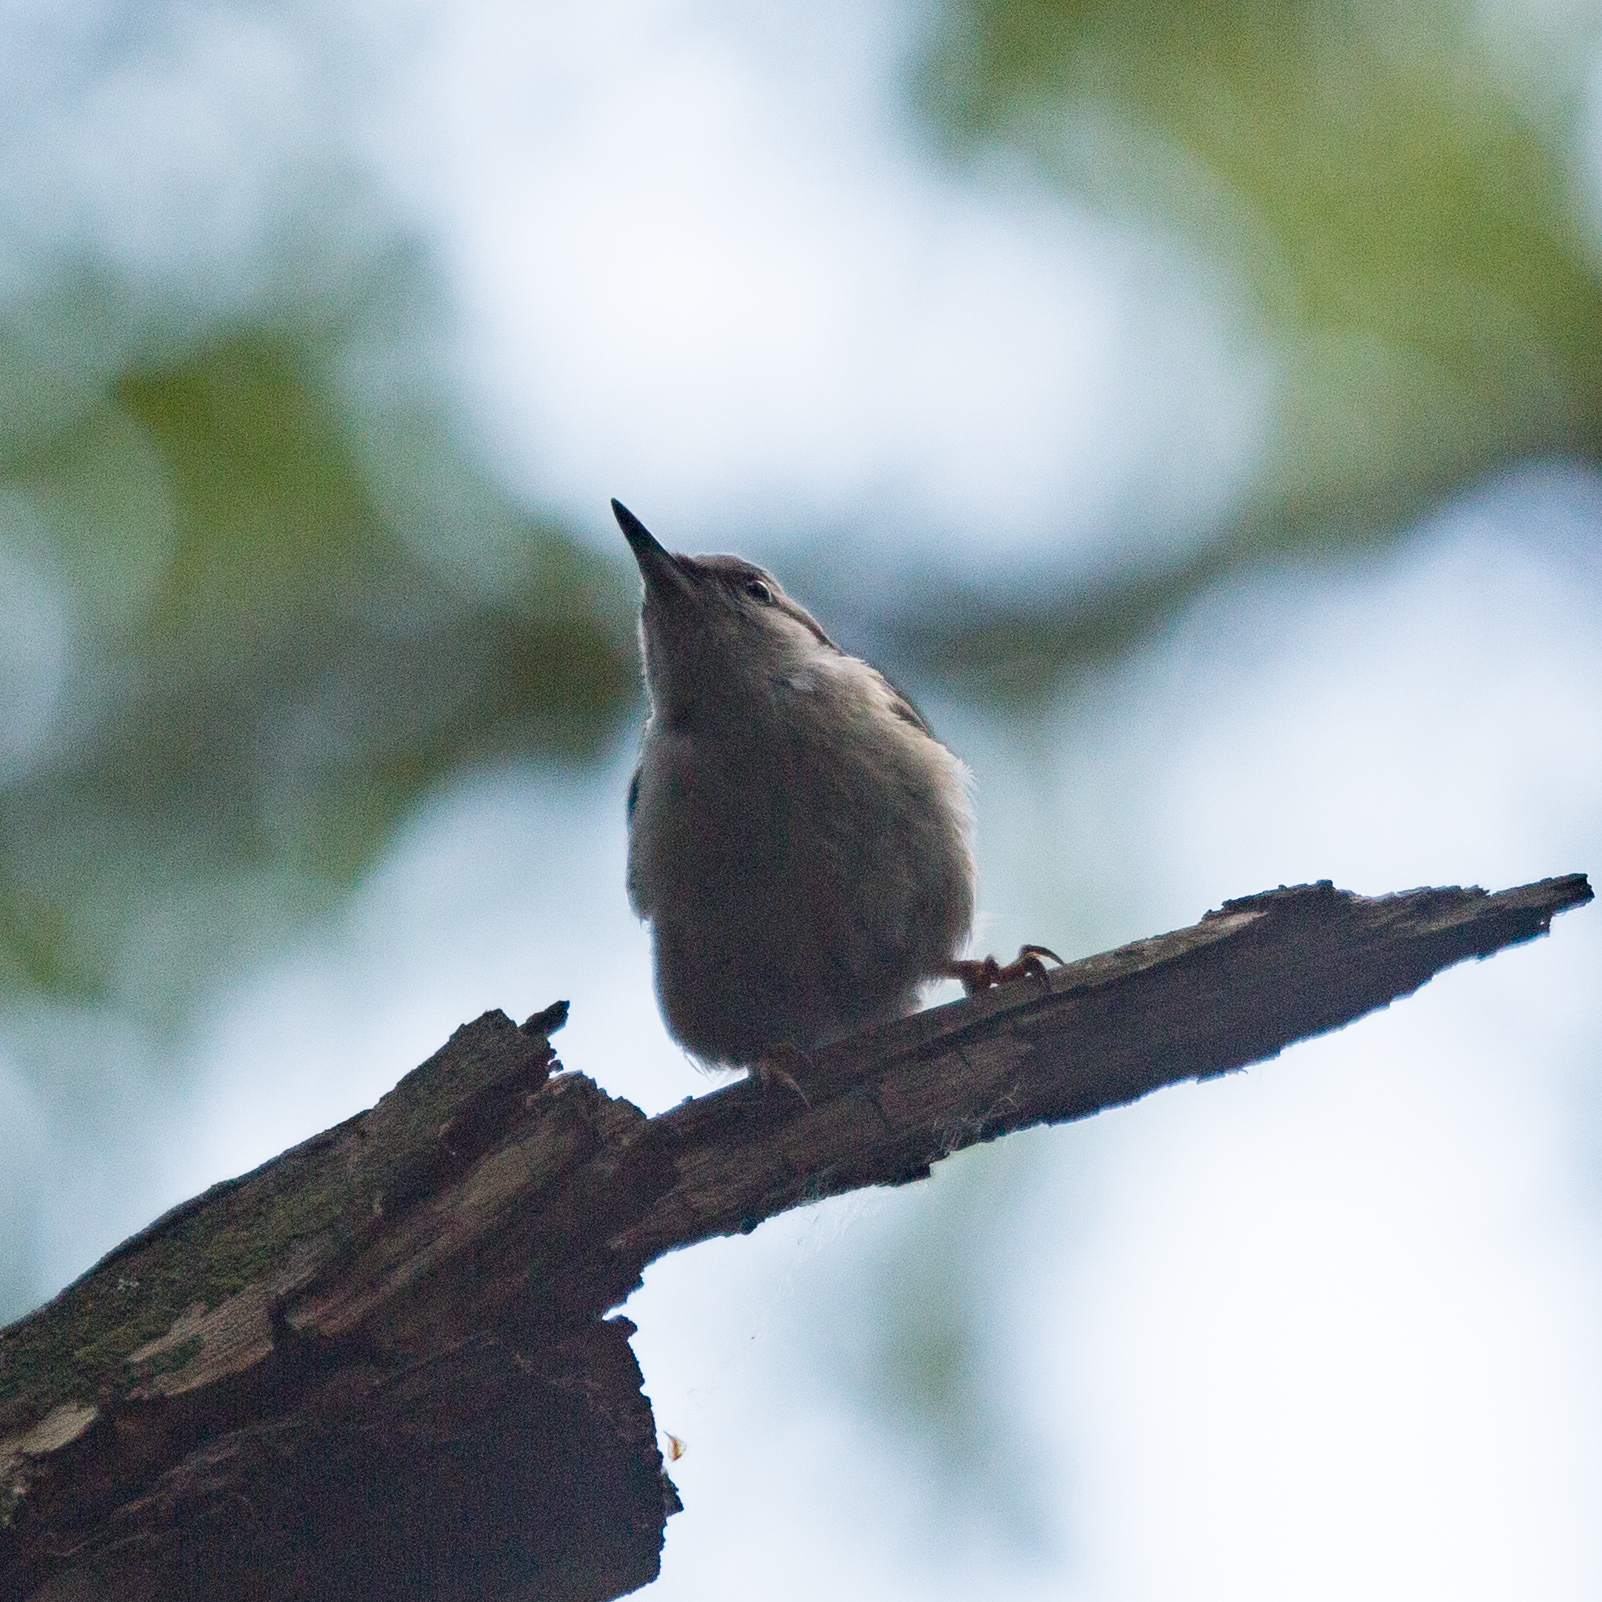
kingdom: Animalia
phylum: Chordata
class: Aves
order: Passeriformes
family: Sittidae
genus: Sitta
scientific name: Sitta europaea
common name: Eurasian nuthatch
